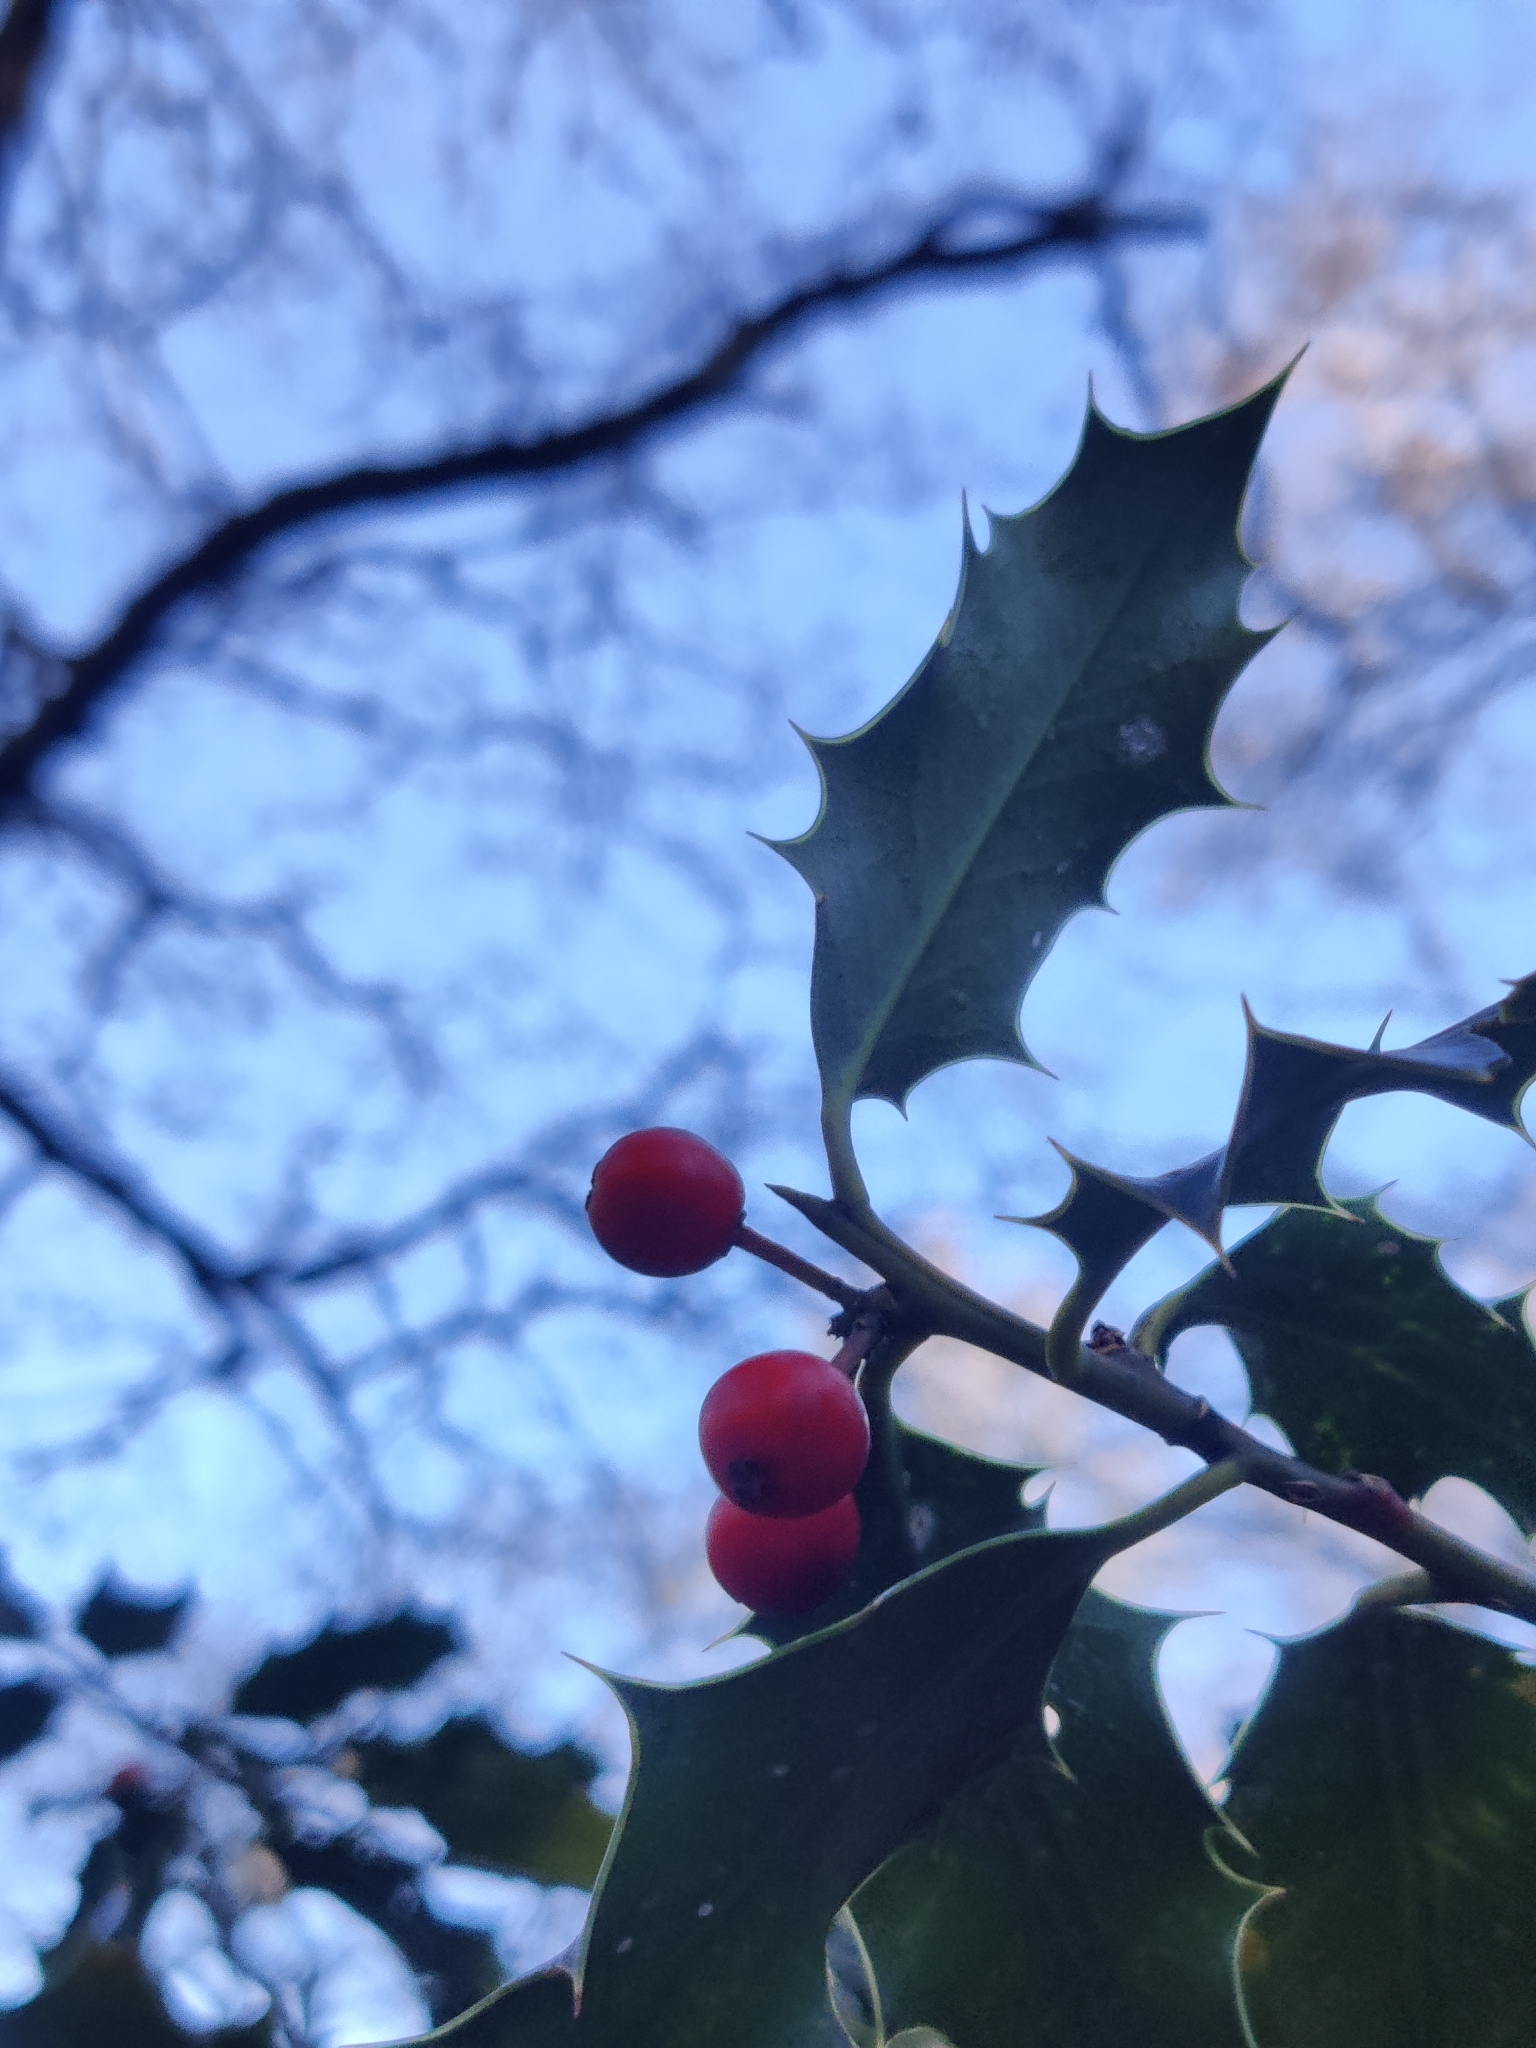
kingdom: Plantae
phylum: Tracheophyta
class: Magnoliopsida
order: Aquifoliales
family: Aquifoliaceae
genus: Ilex
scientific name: Ilex aquifolium
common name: English holly
